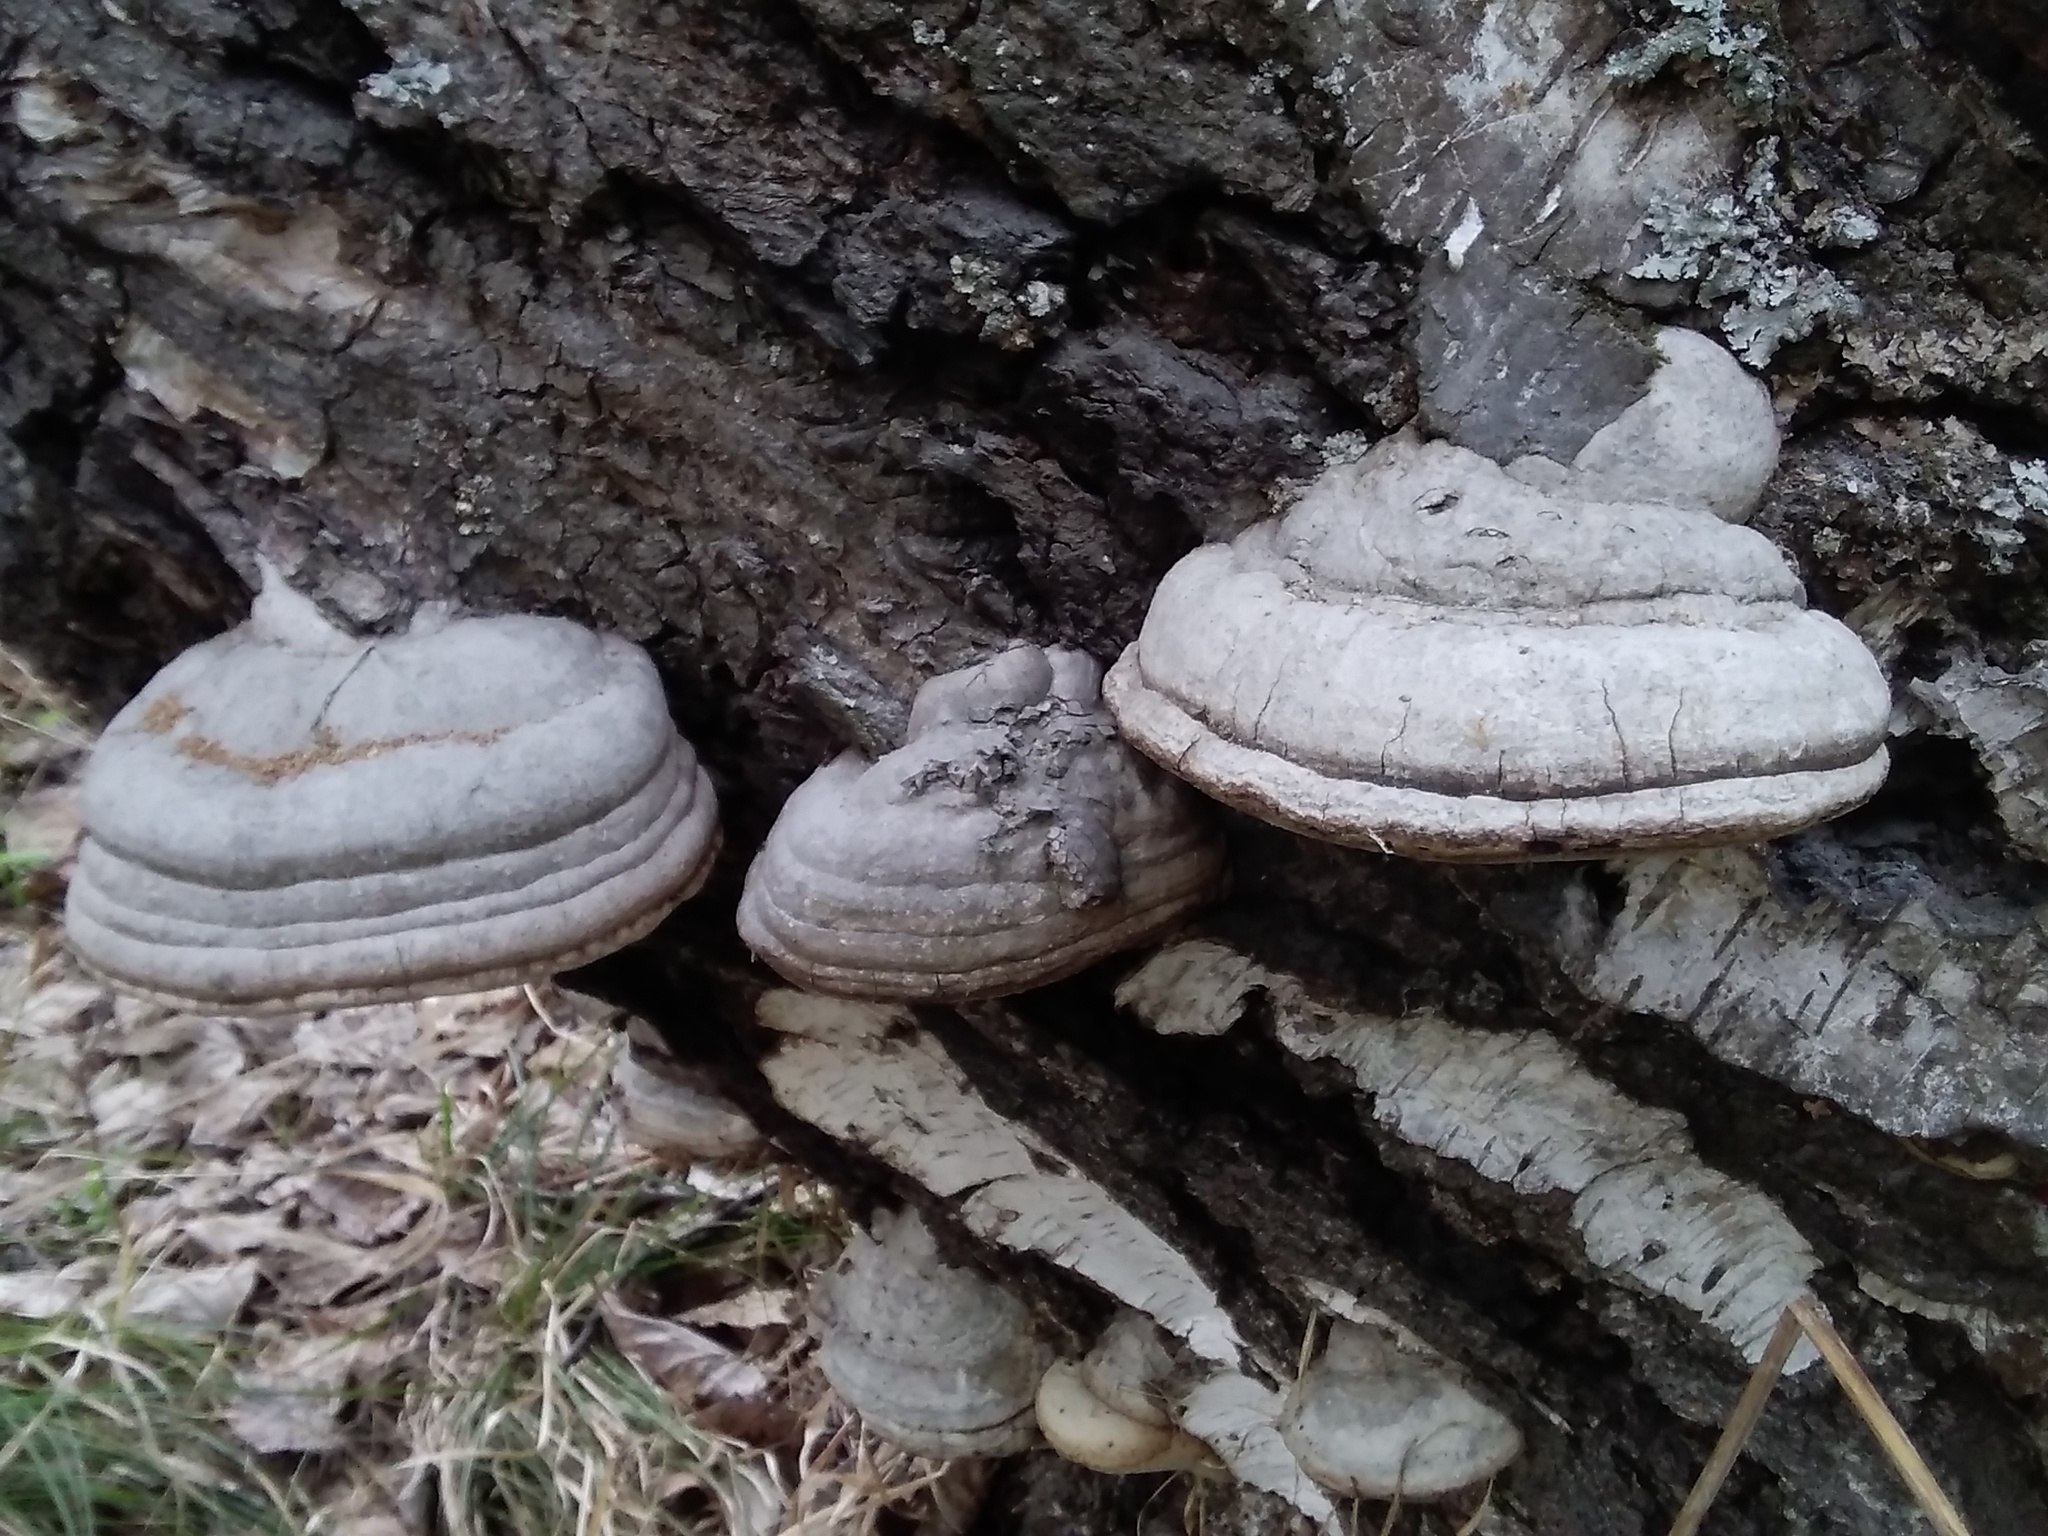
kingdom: Fungi
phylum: Basidiomycota
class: Agaricomycetes
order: Polyporales
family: Polyporaceae
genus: Fomes
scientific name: Fomes fomentarius
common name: Hoof fungus
